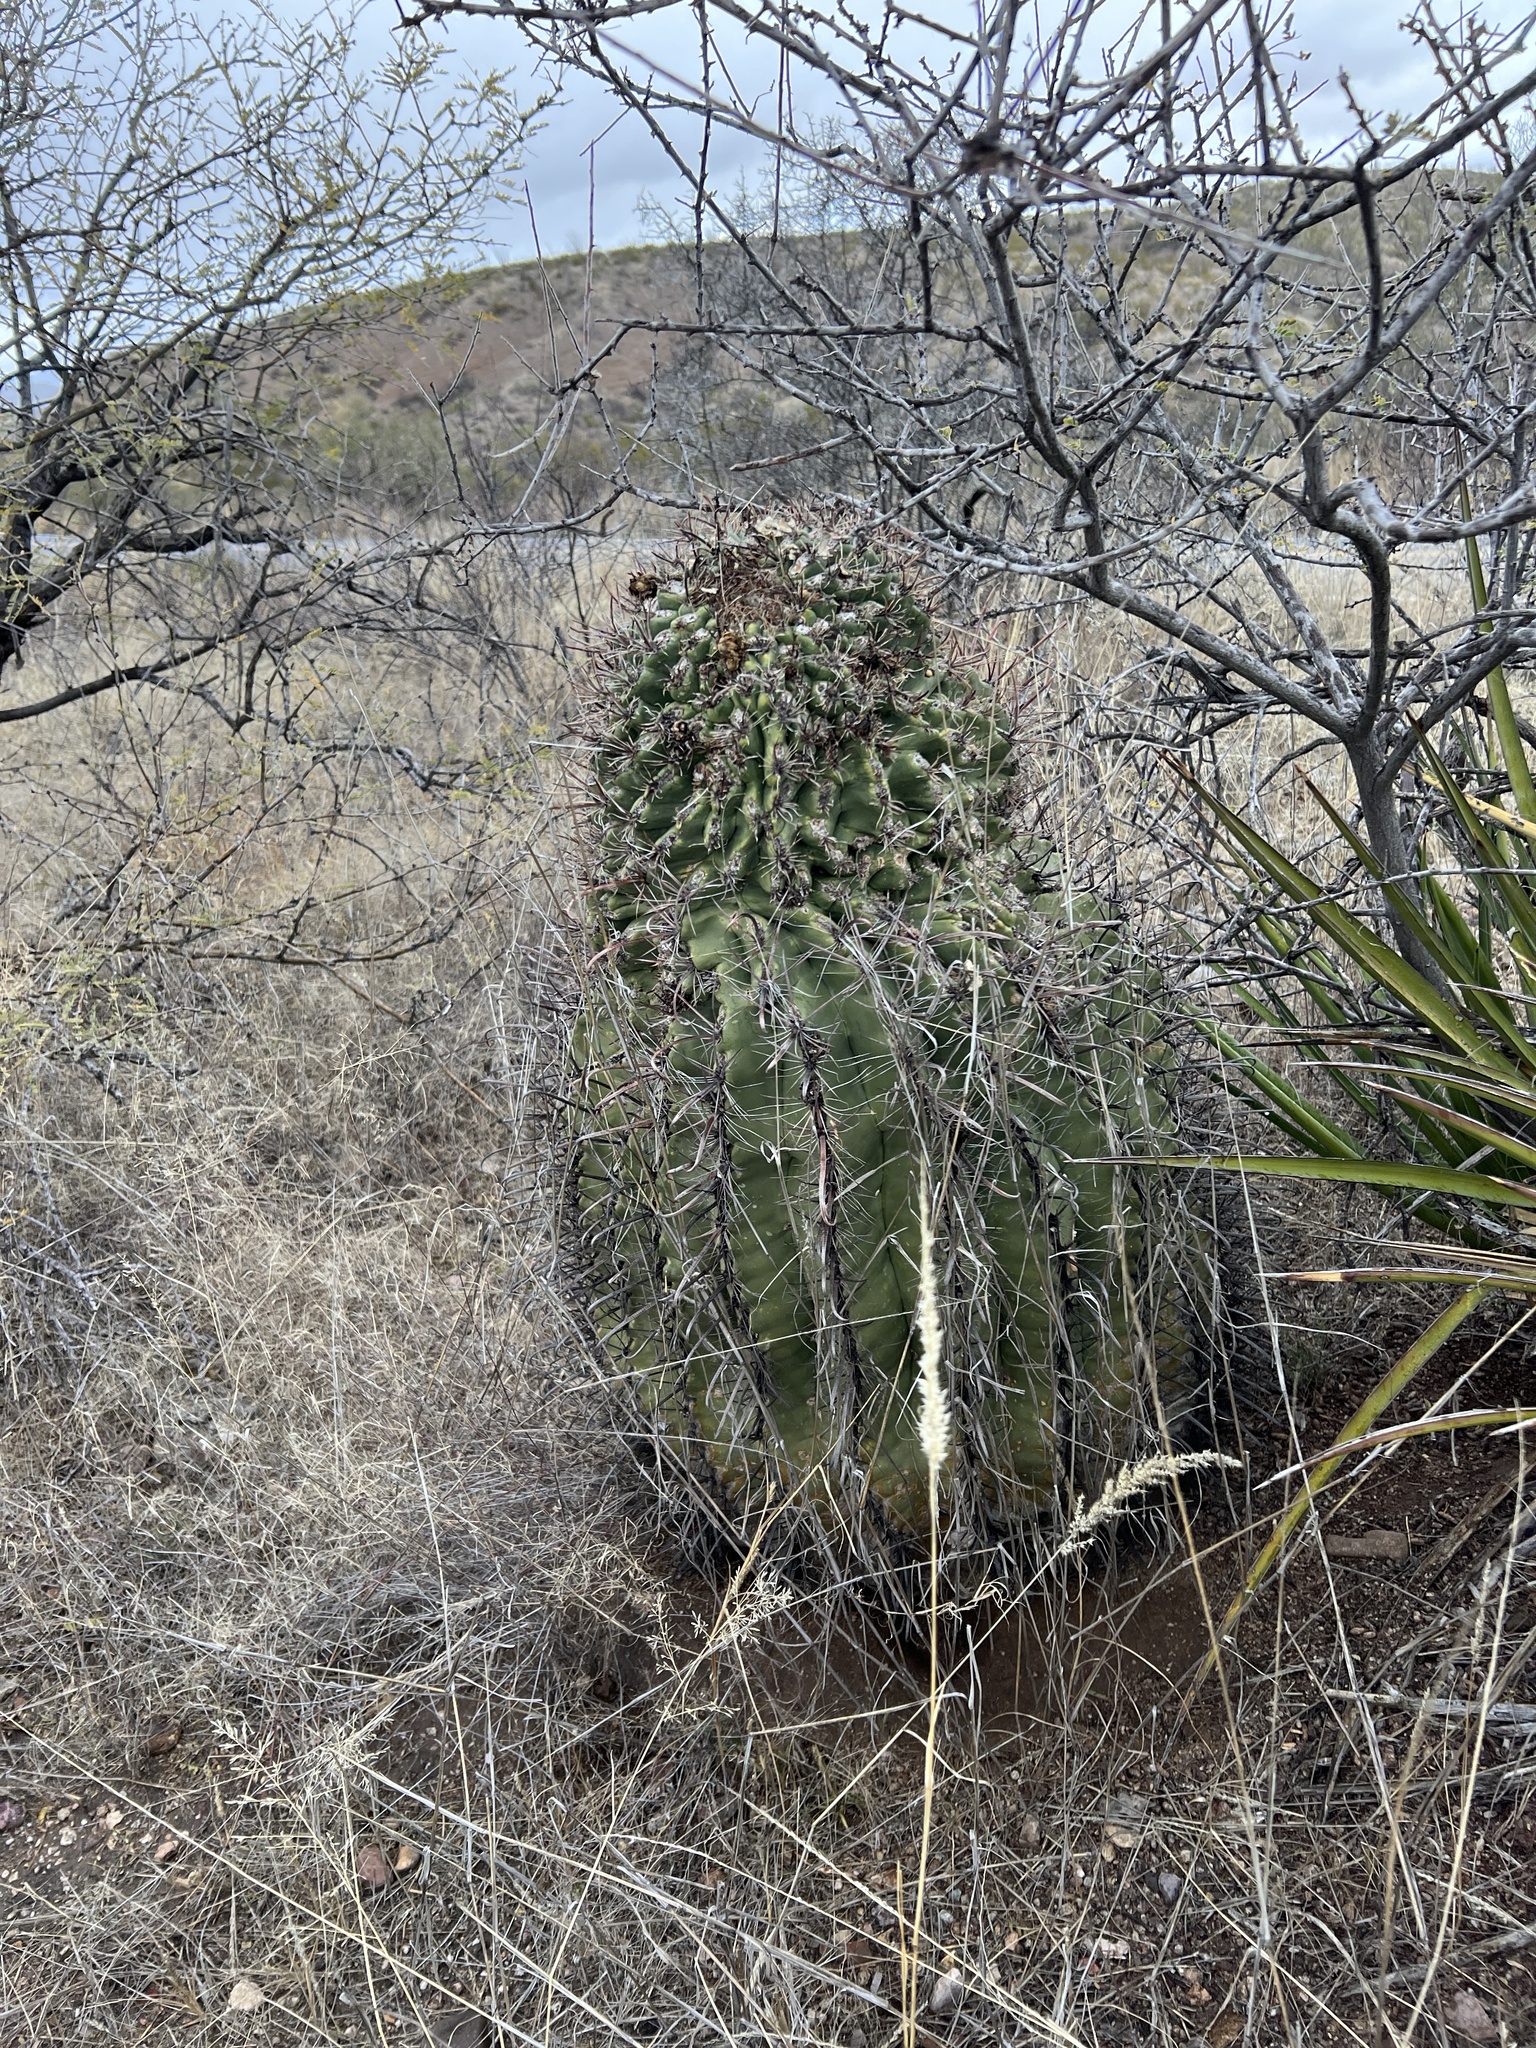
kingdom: Plantae
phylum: Tracheophyta
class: Magnoliopsida
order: Caryophyllales
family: Cactaceae
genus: Ferocactus
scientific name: Ferocactus wislizeni
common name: Candy barrel cactus
